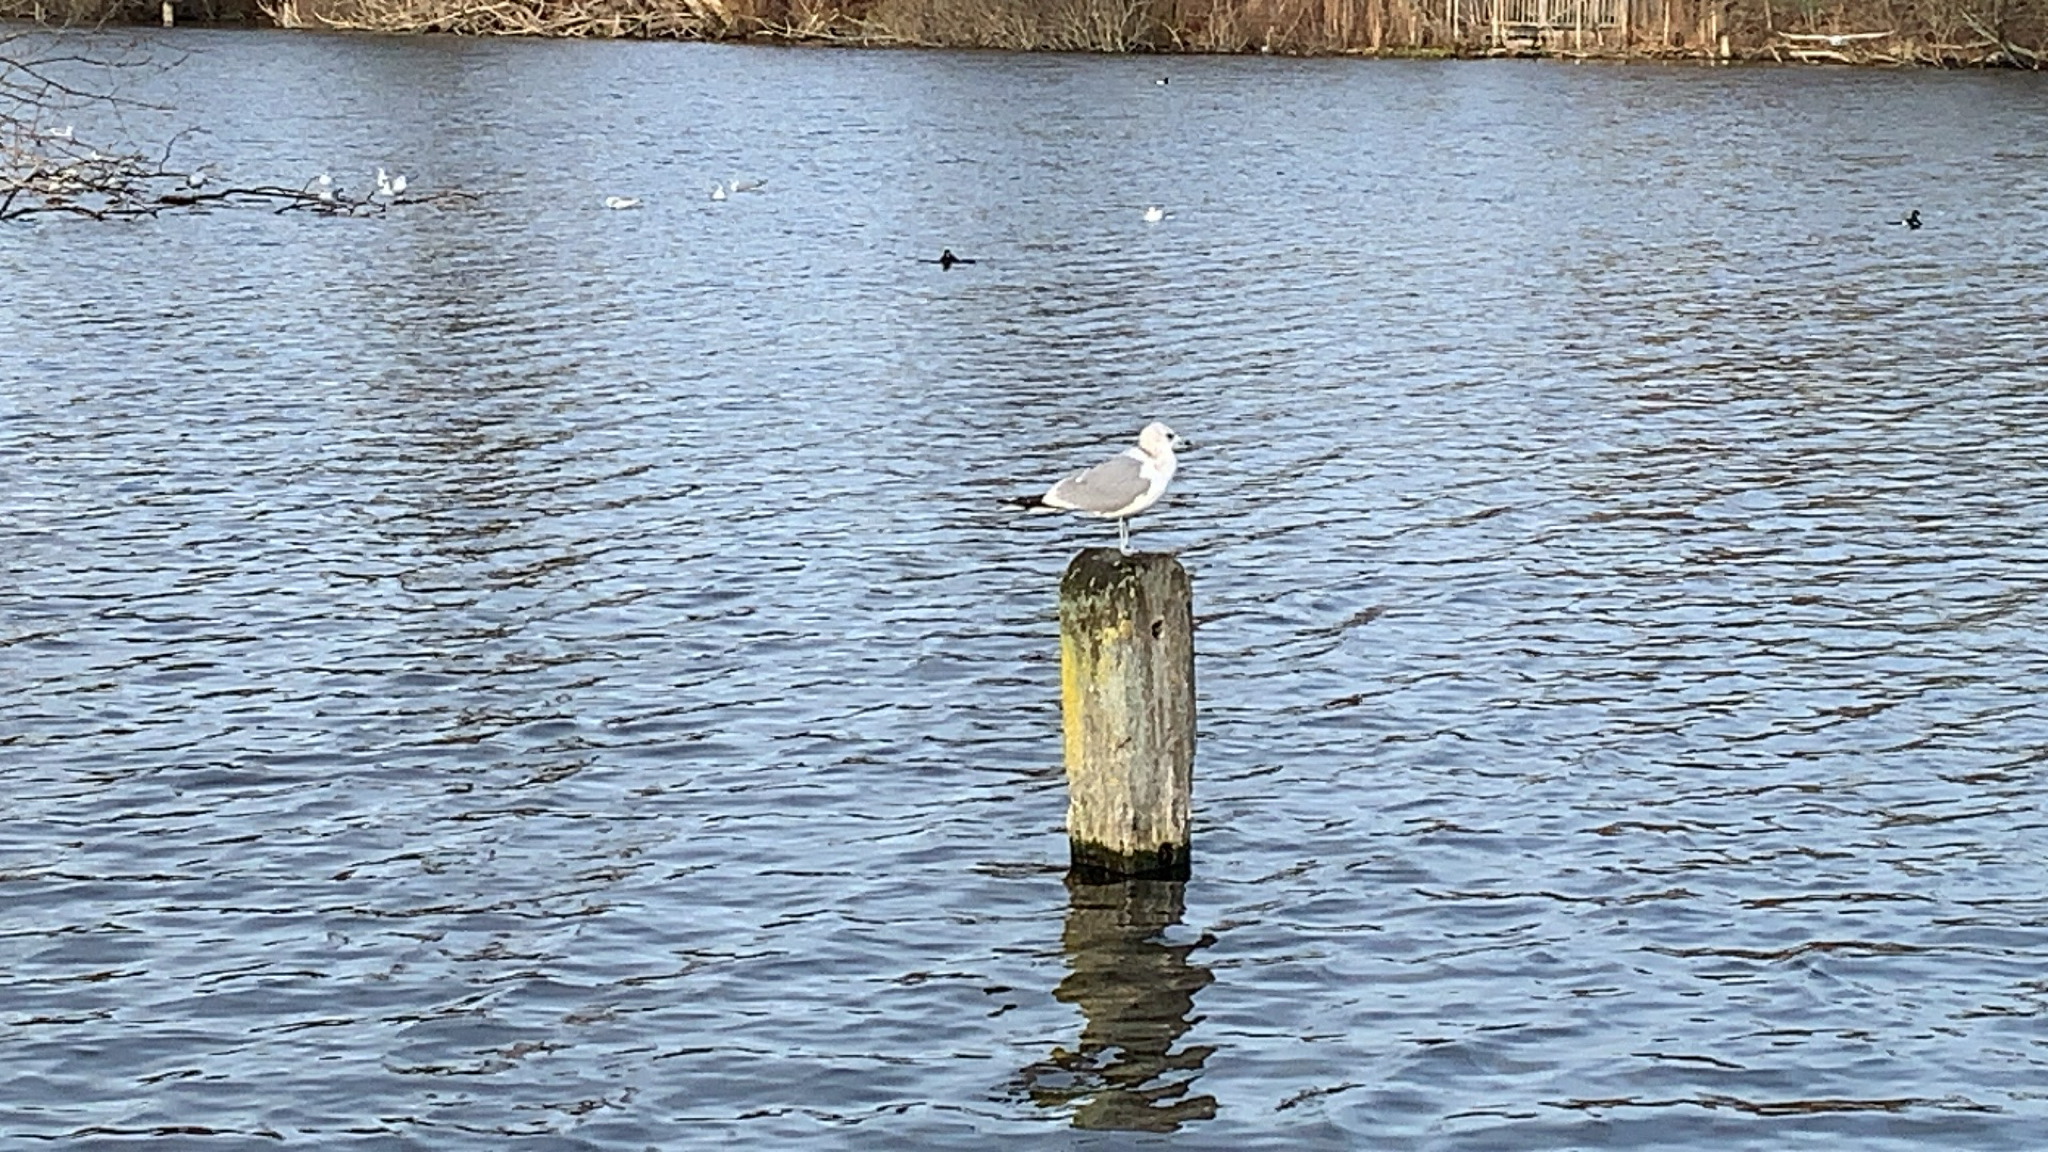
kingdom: Animalia
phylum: Chordata
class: Aves
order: Charadriiformes
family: Laridae
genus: Larus
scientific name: Larus canus
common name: Mew gull
